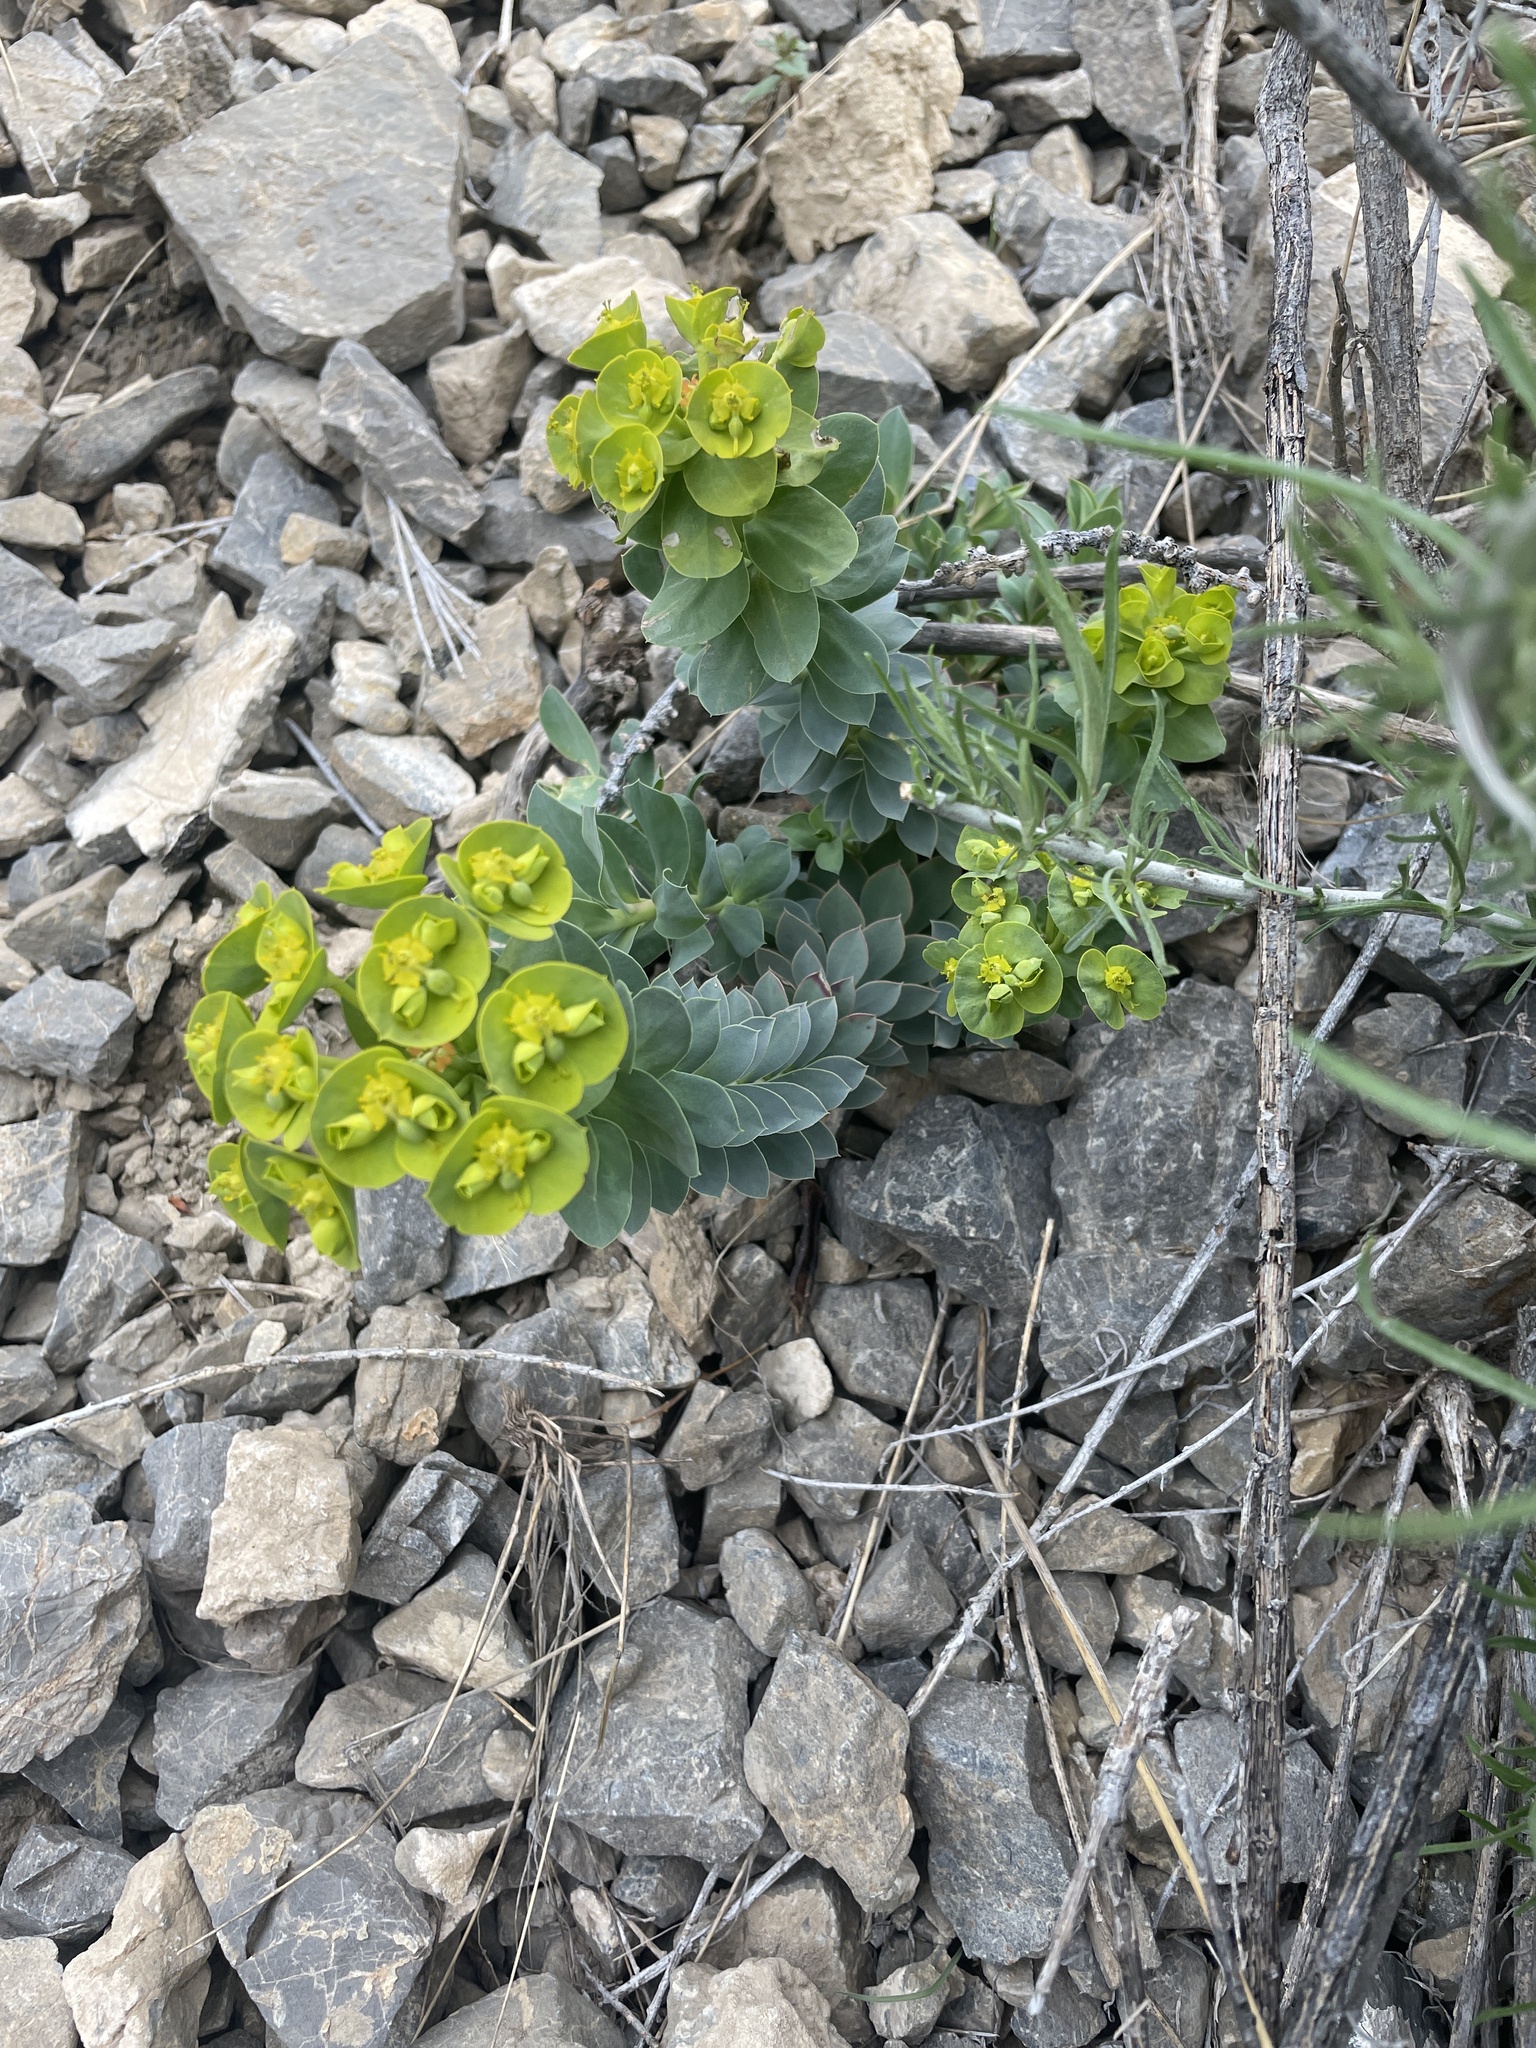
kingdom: Plantae
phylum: Tracheophyta
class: Magnoliopsida
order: Malpighiales
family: Euphorbiaceae
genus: Euphorbia
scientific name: Euphorbia myrsinites
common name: Myrtle spurge
